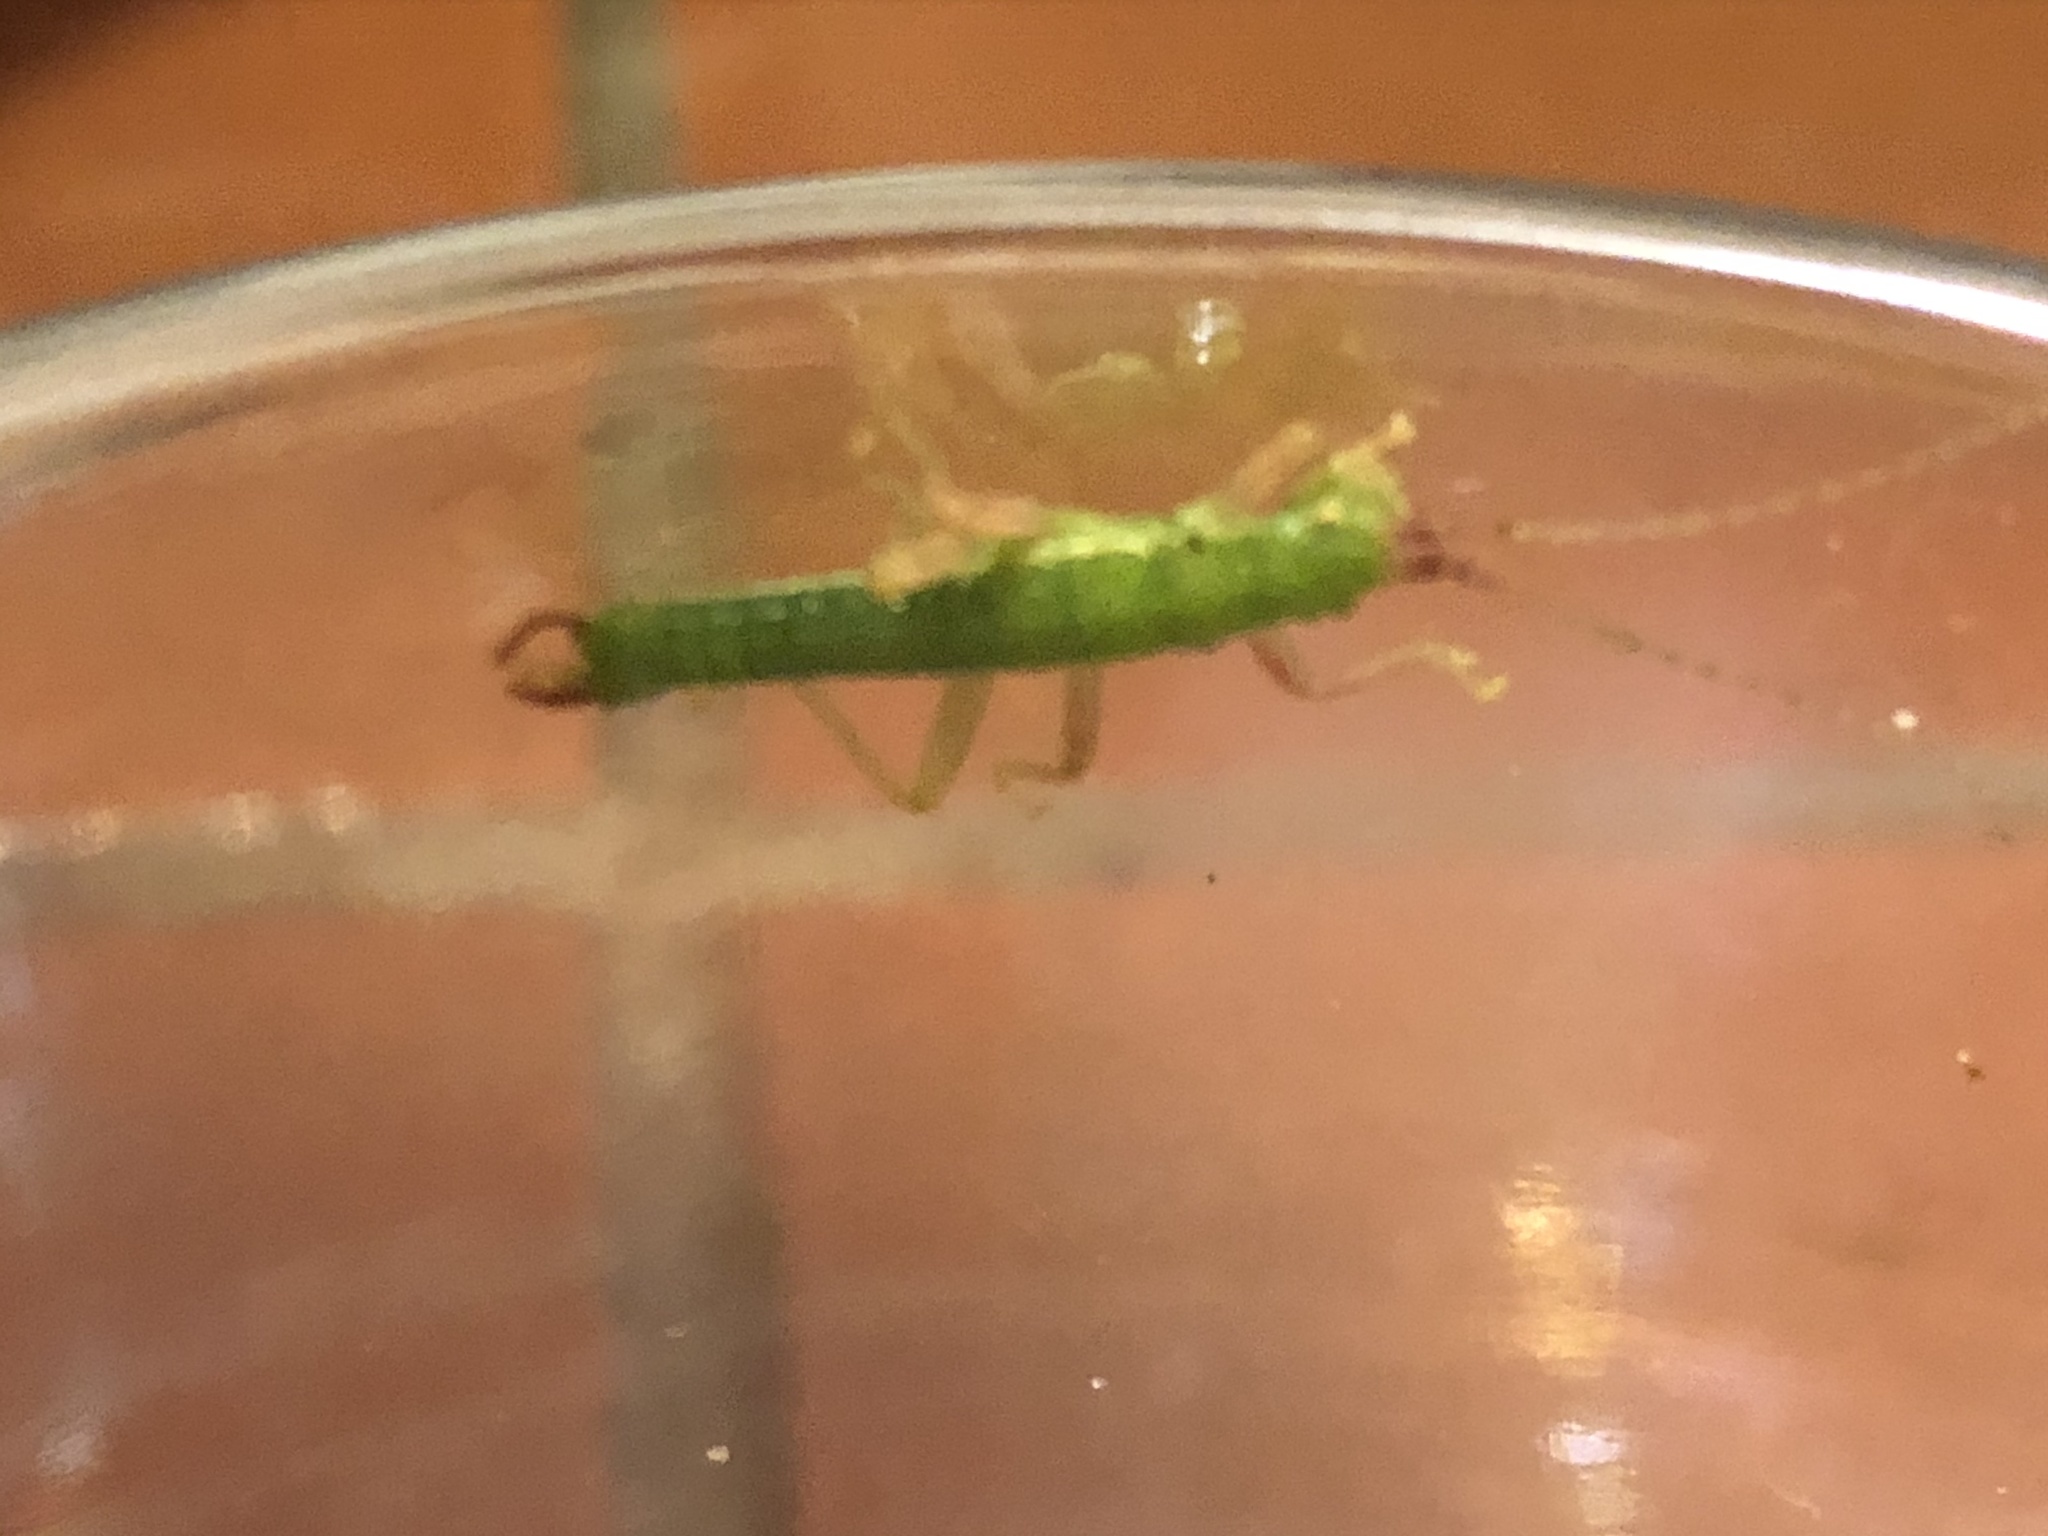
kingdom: Animalia
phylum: Arthropoda
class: Insecta
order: Phasmida
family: Timematidae
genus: Timema
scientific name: Timema californicum
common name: California timema
